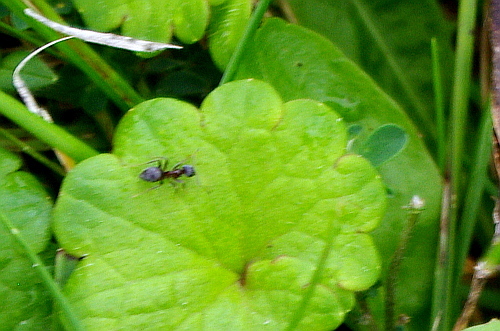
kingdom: Animalia
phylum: Arthropoda
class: Insecta
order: Hymenoptera
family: Formicidae
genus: Lasius
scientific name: Lasius
